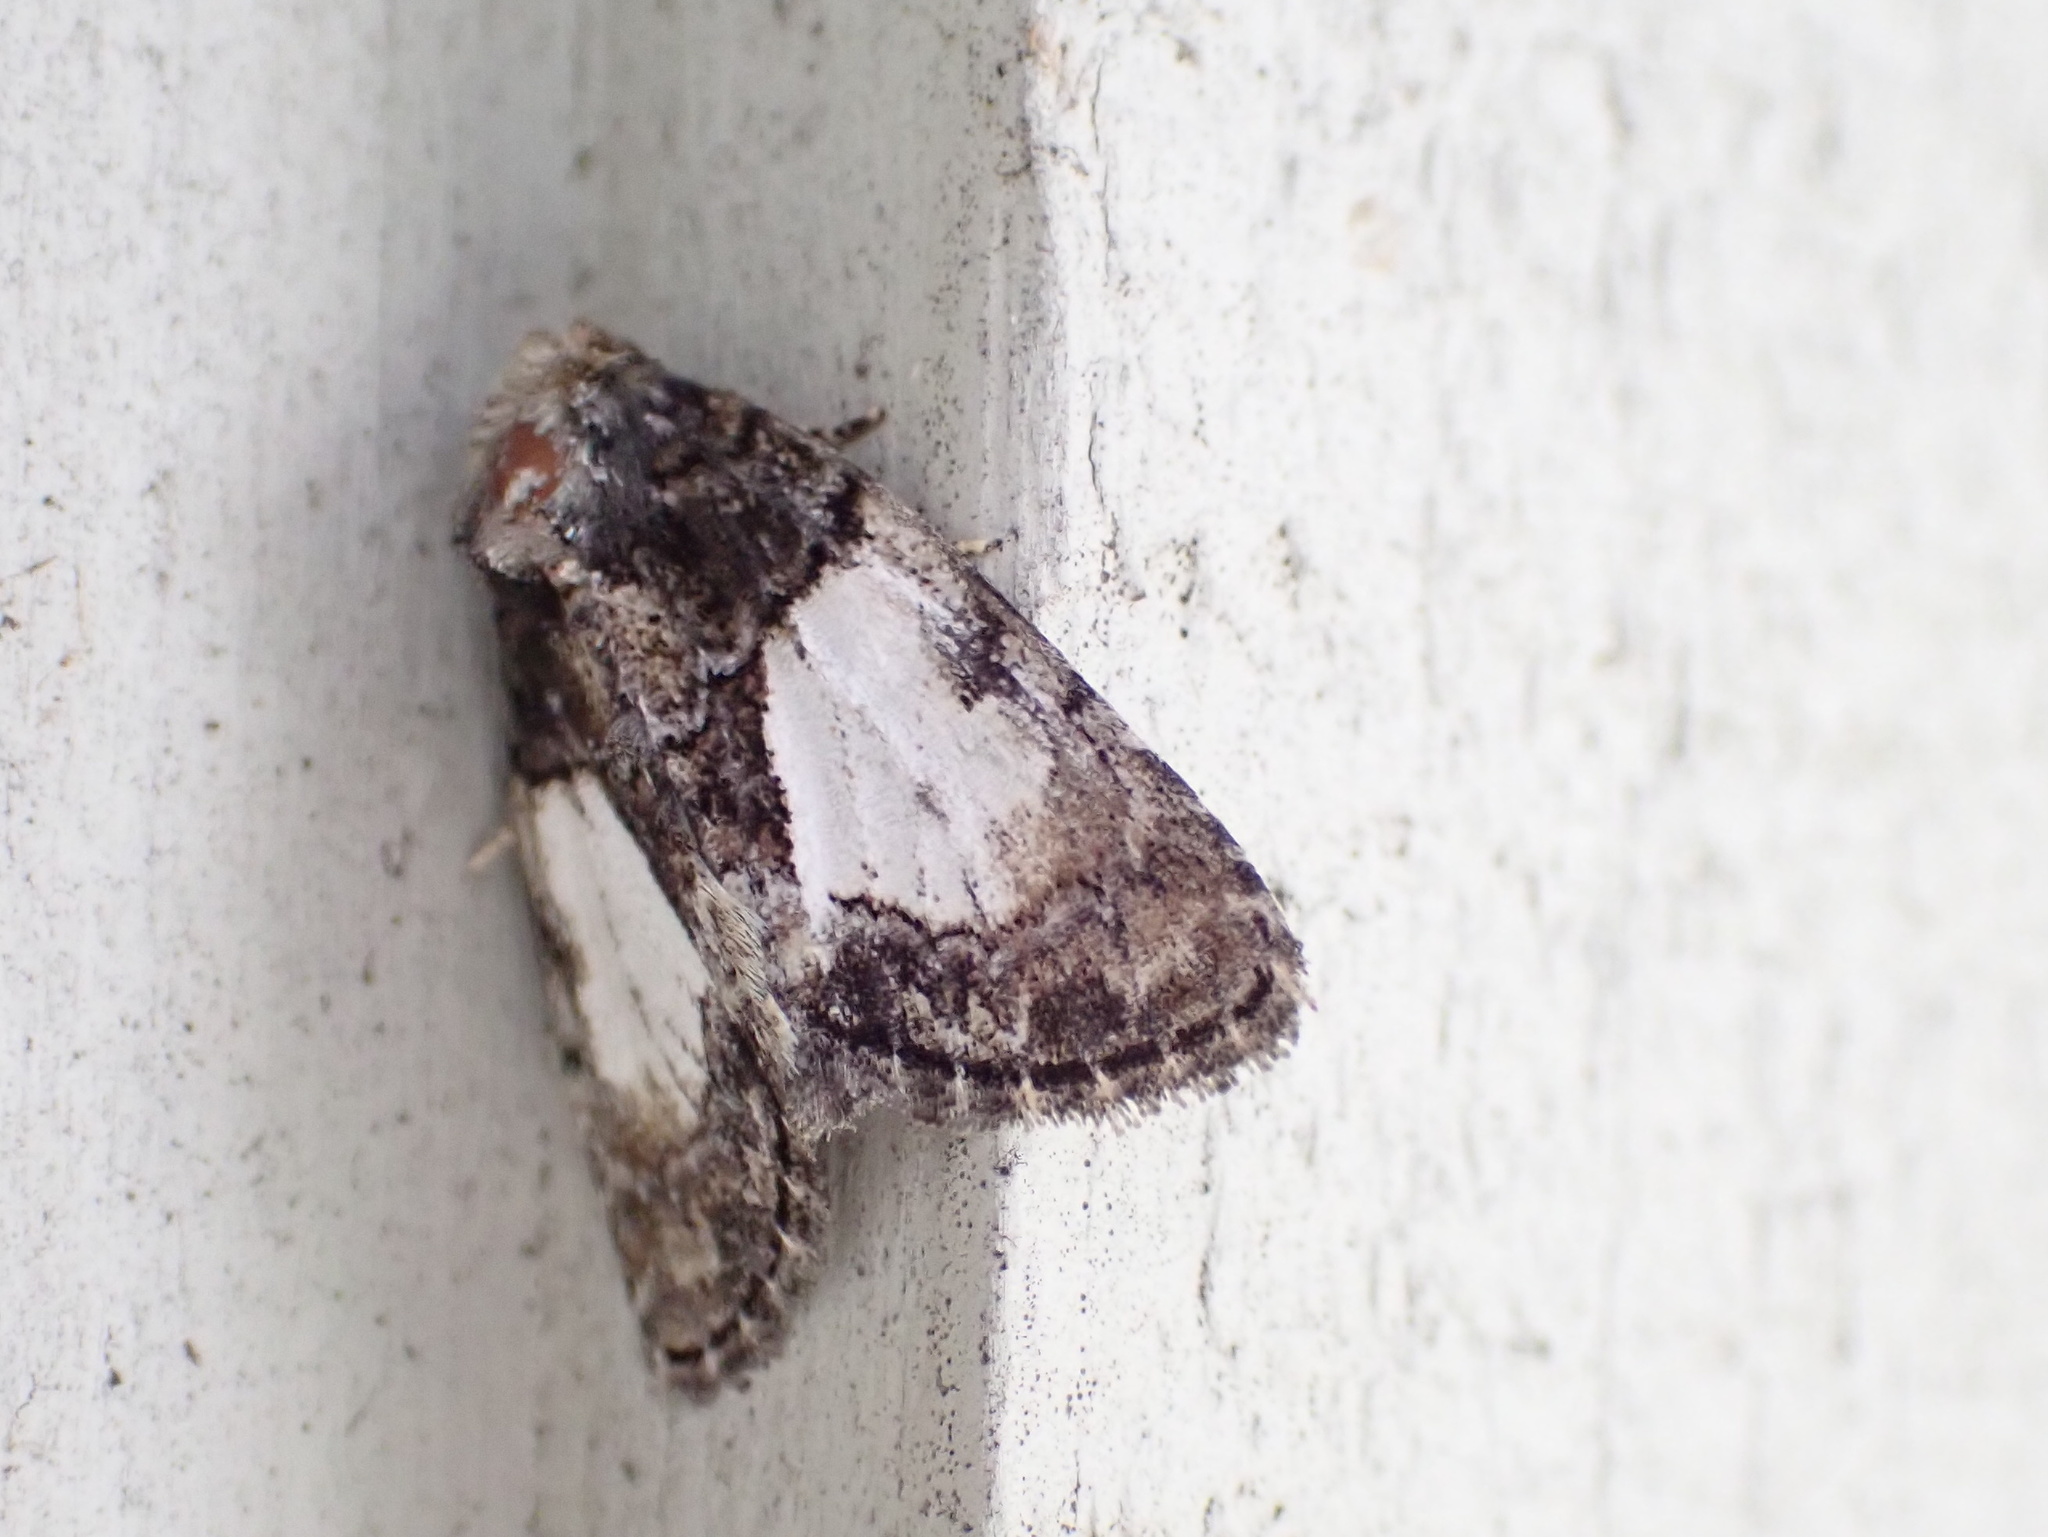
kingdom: Animalia
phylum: Arthropoda
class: Insecta
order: Lepidoptera
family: Noctuidae
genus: Chytonix
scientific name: Chytonix palliatricula
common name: Cloaked marvel
